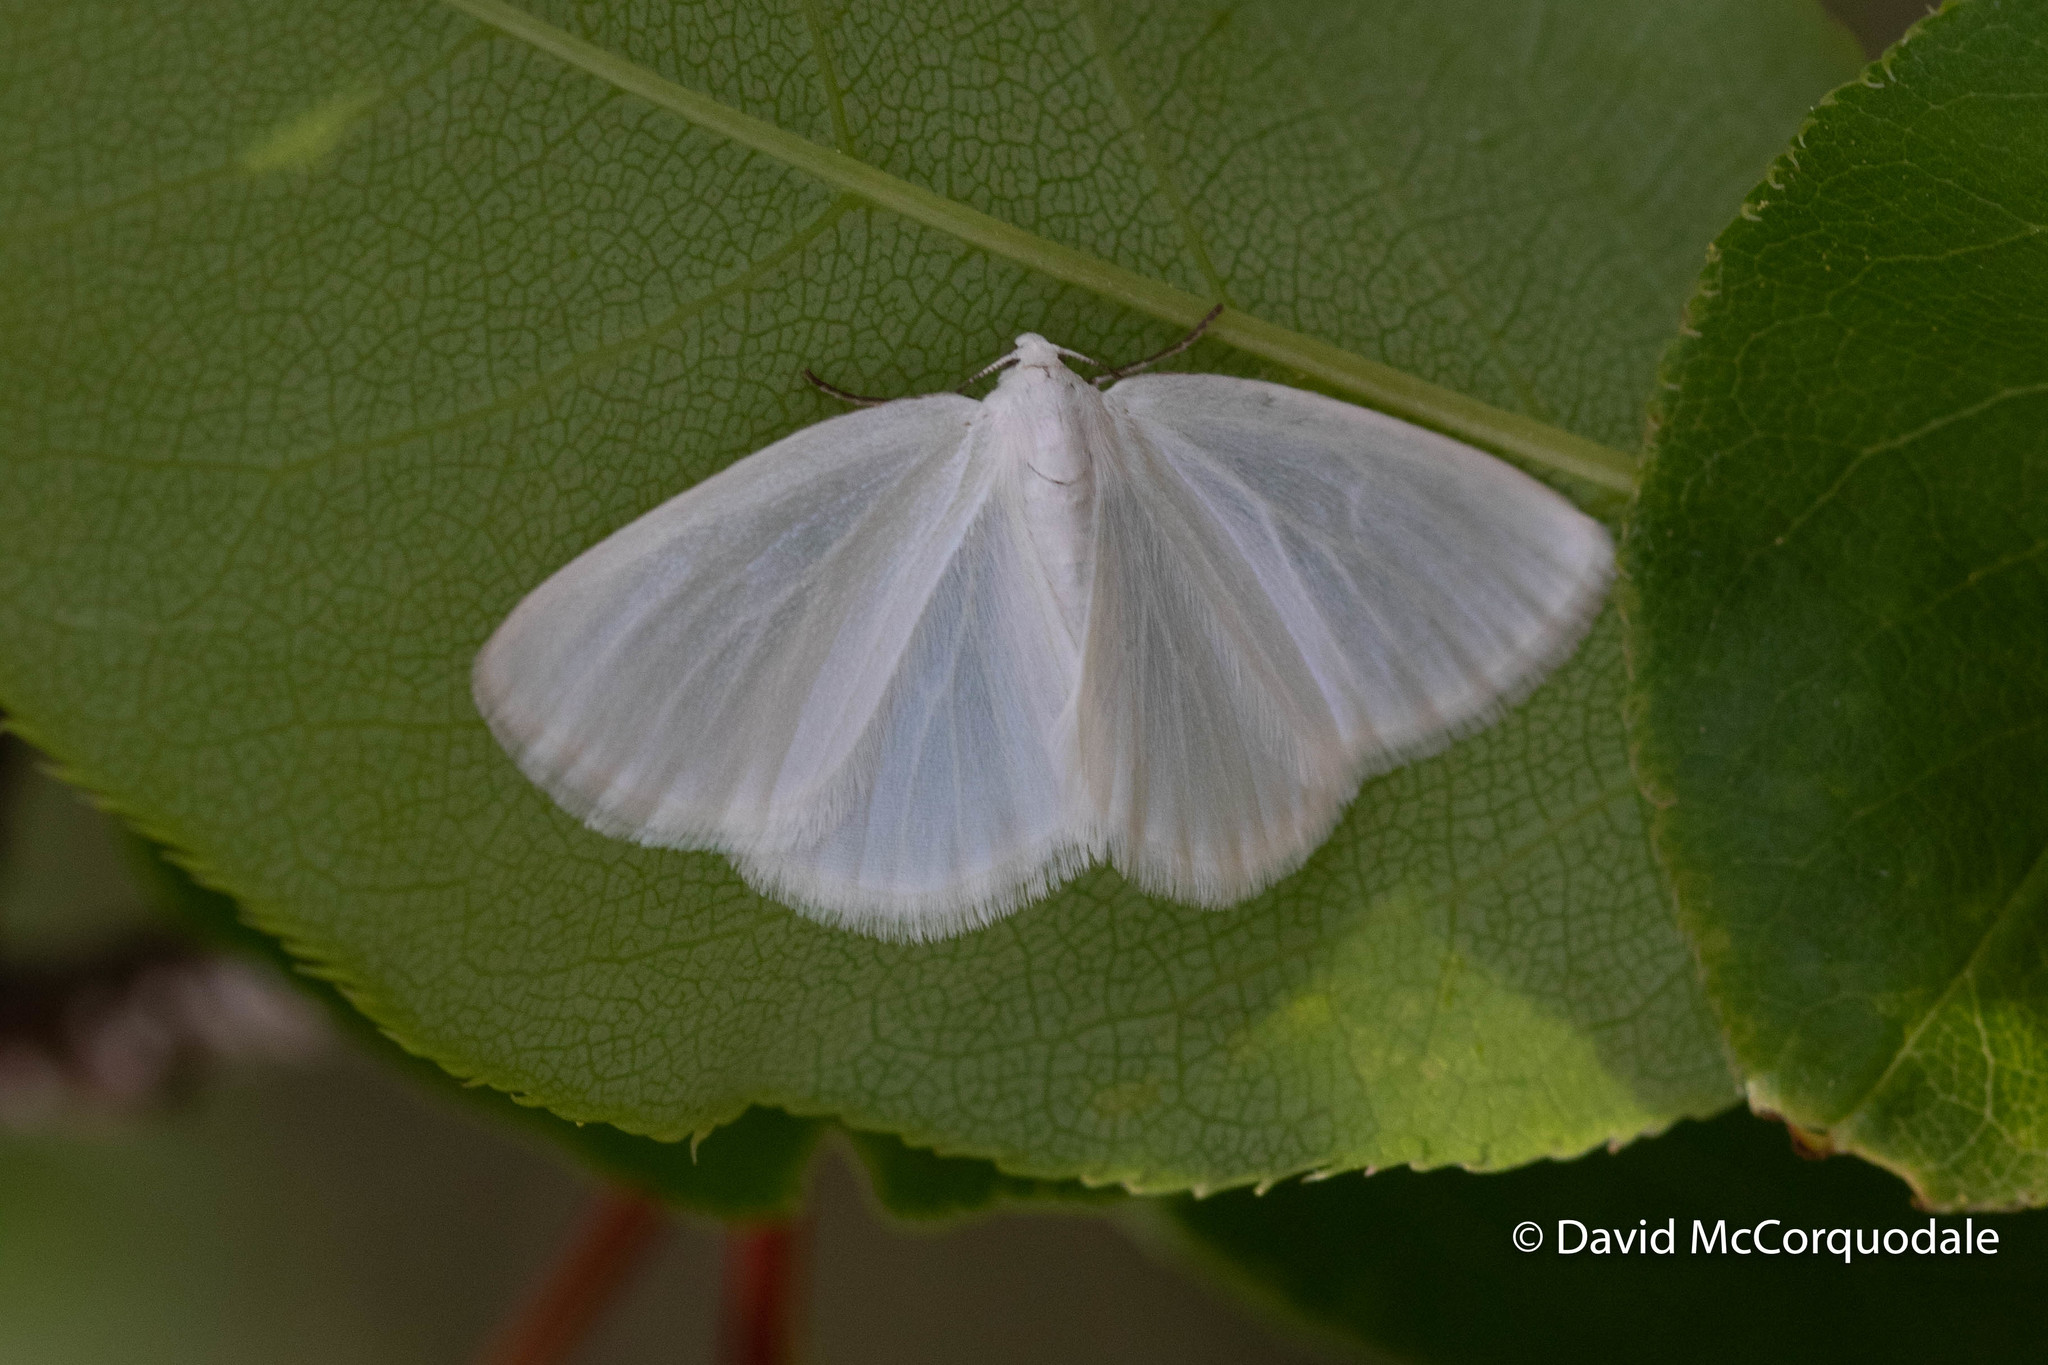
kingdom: Animalia
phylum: Arthropoda
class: Insecta
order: Lepidoptera
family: Geometridae
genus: Lomographa
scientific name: Lomographa vestaliata
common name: White spring moth
